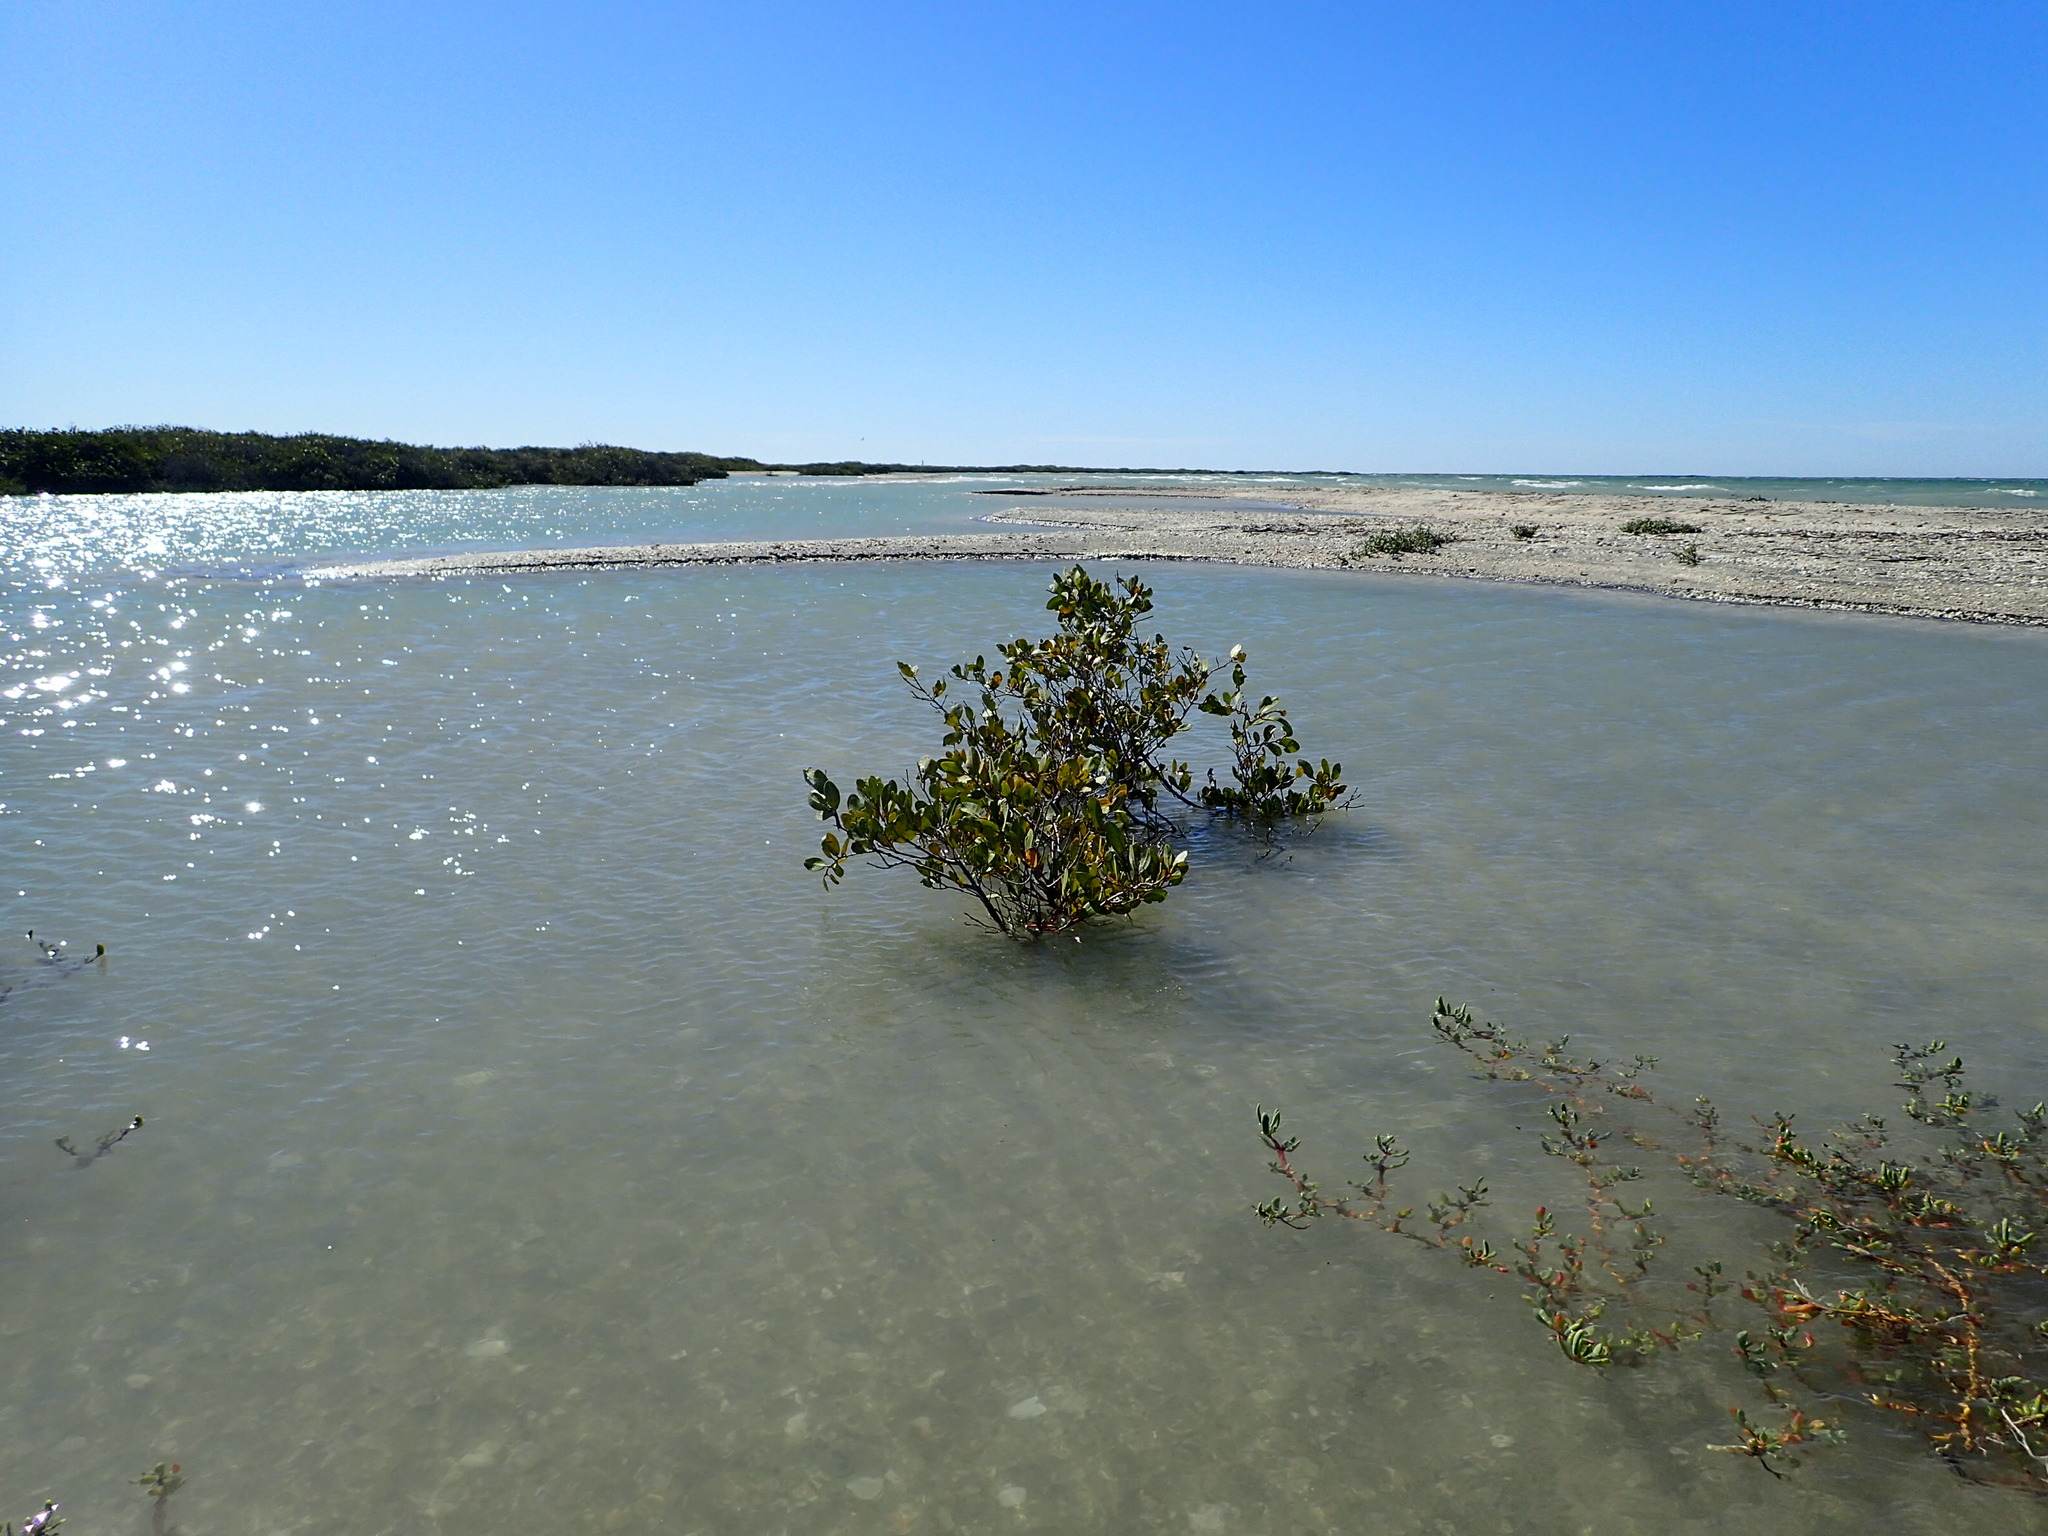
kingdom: Plantae
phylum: Tracheophyta
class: Magnoliopsida
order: Myrtales
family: Combretaceae
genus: Laguncularia
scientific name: Laguncularia racemosa
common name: White mangrove
